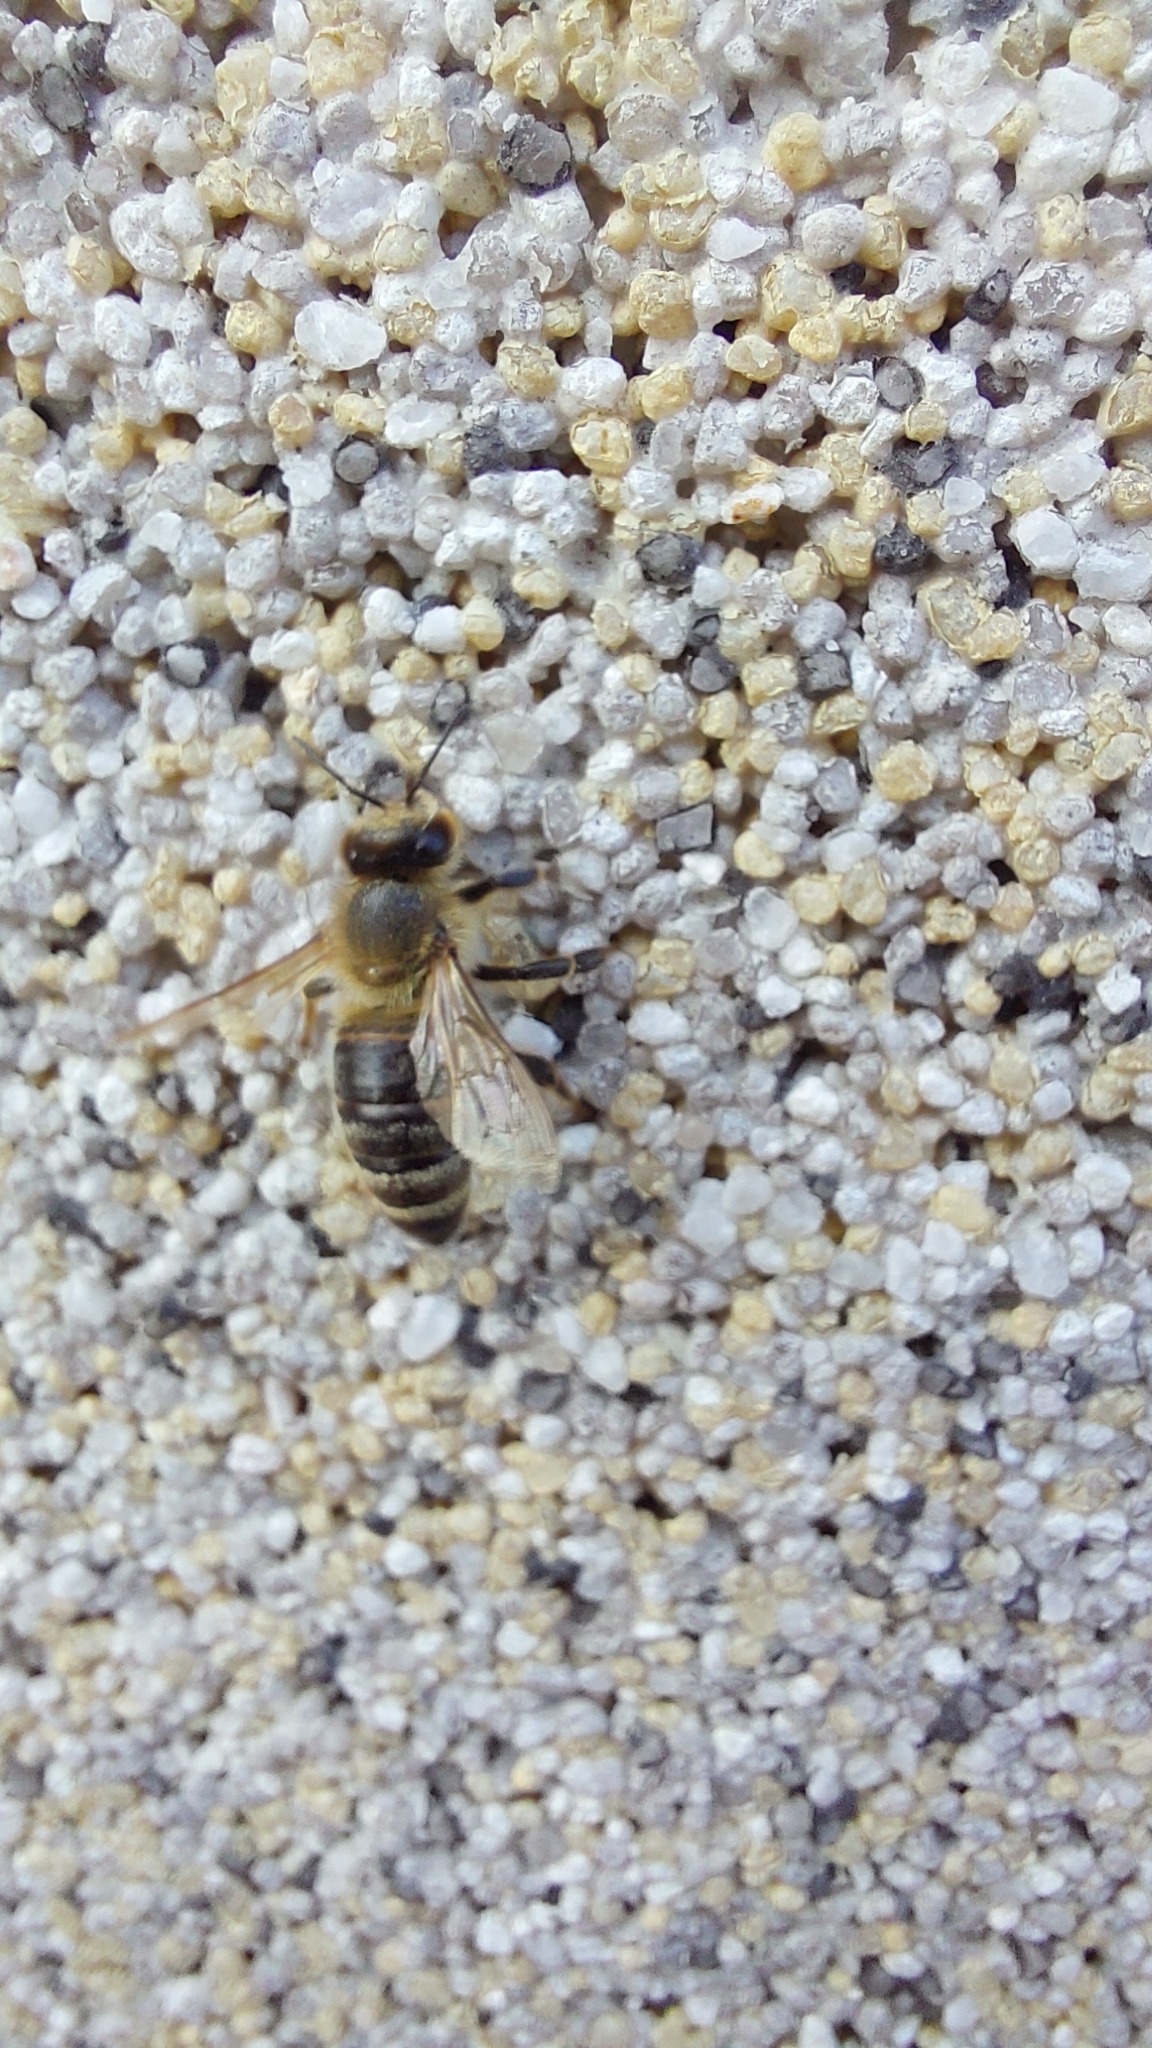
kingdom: Animalia
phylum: Arthropoda
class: Insecta
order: Hymenoptera
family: Apidae
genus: Apis
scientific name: Apis mellifera
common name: Honey bee
